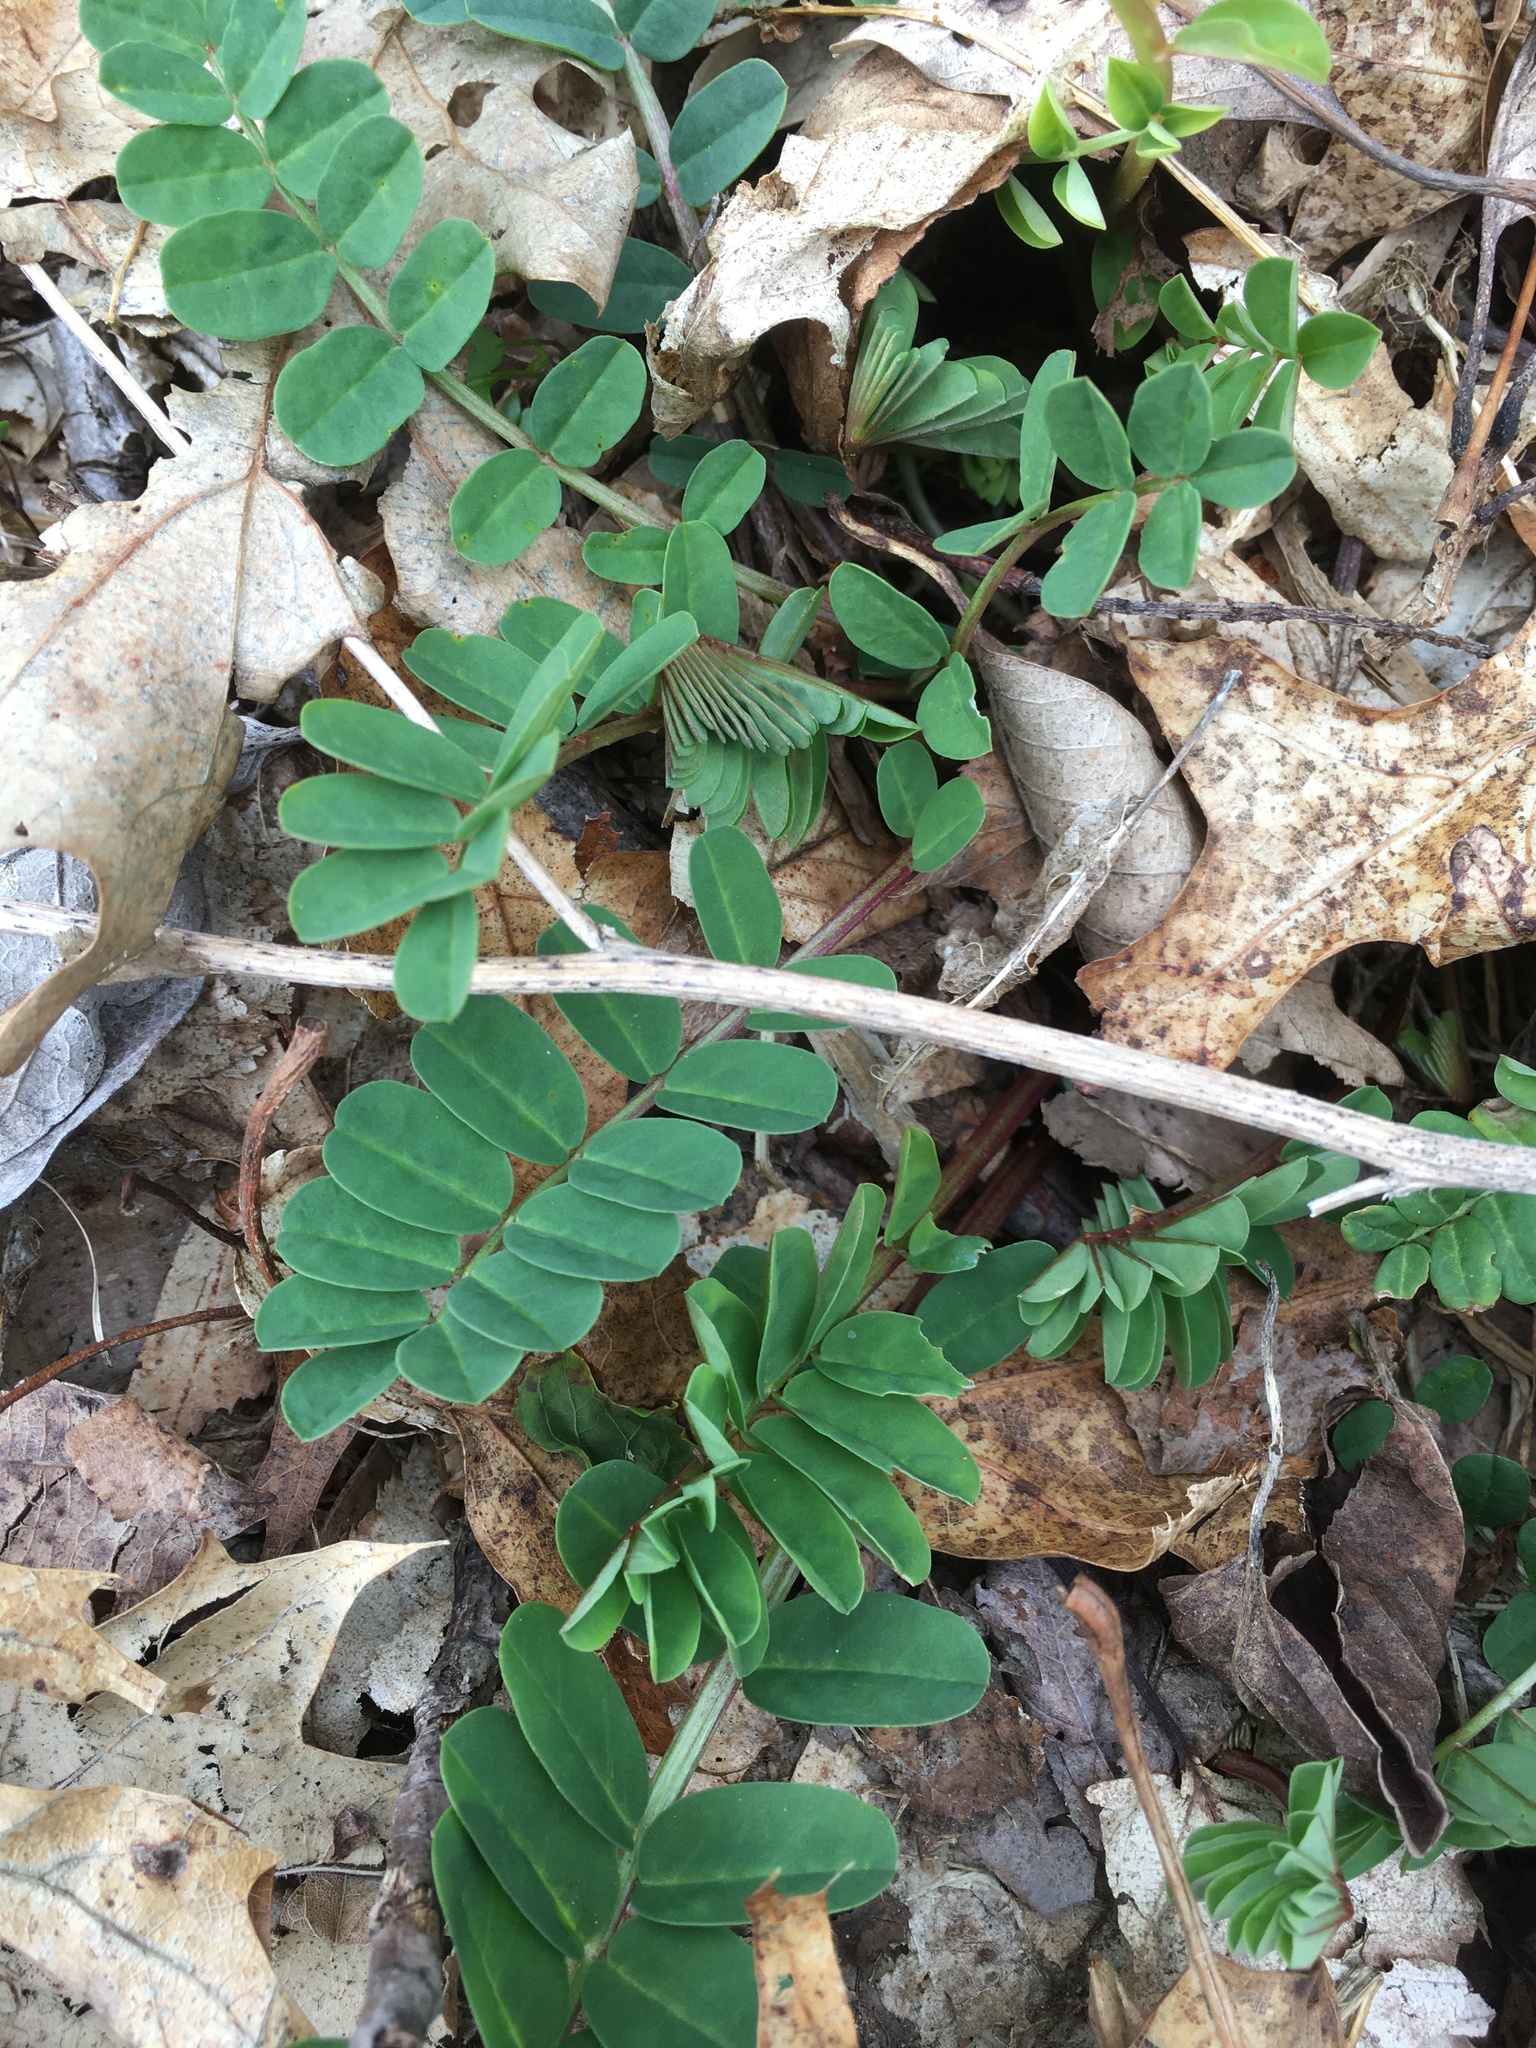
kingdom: Plantae
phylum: Tracheophyta
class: Magnoliopsida
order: Fabales
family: Fabaceae
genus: Coronilla
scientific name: Coronilla varia
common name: Crownvetch
